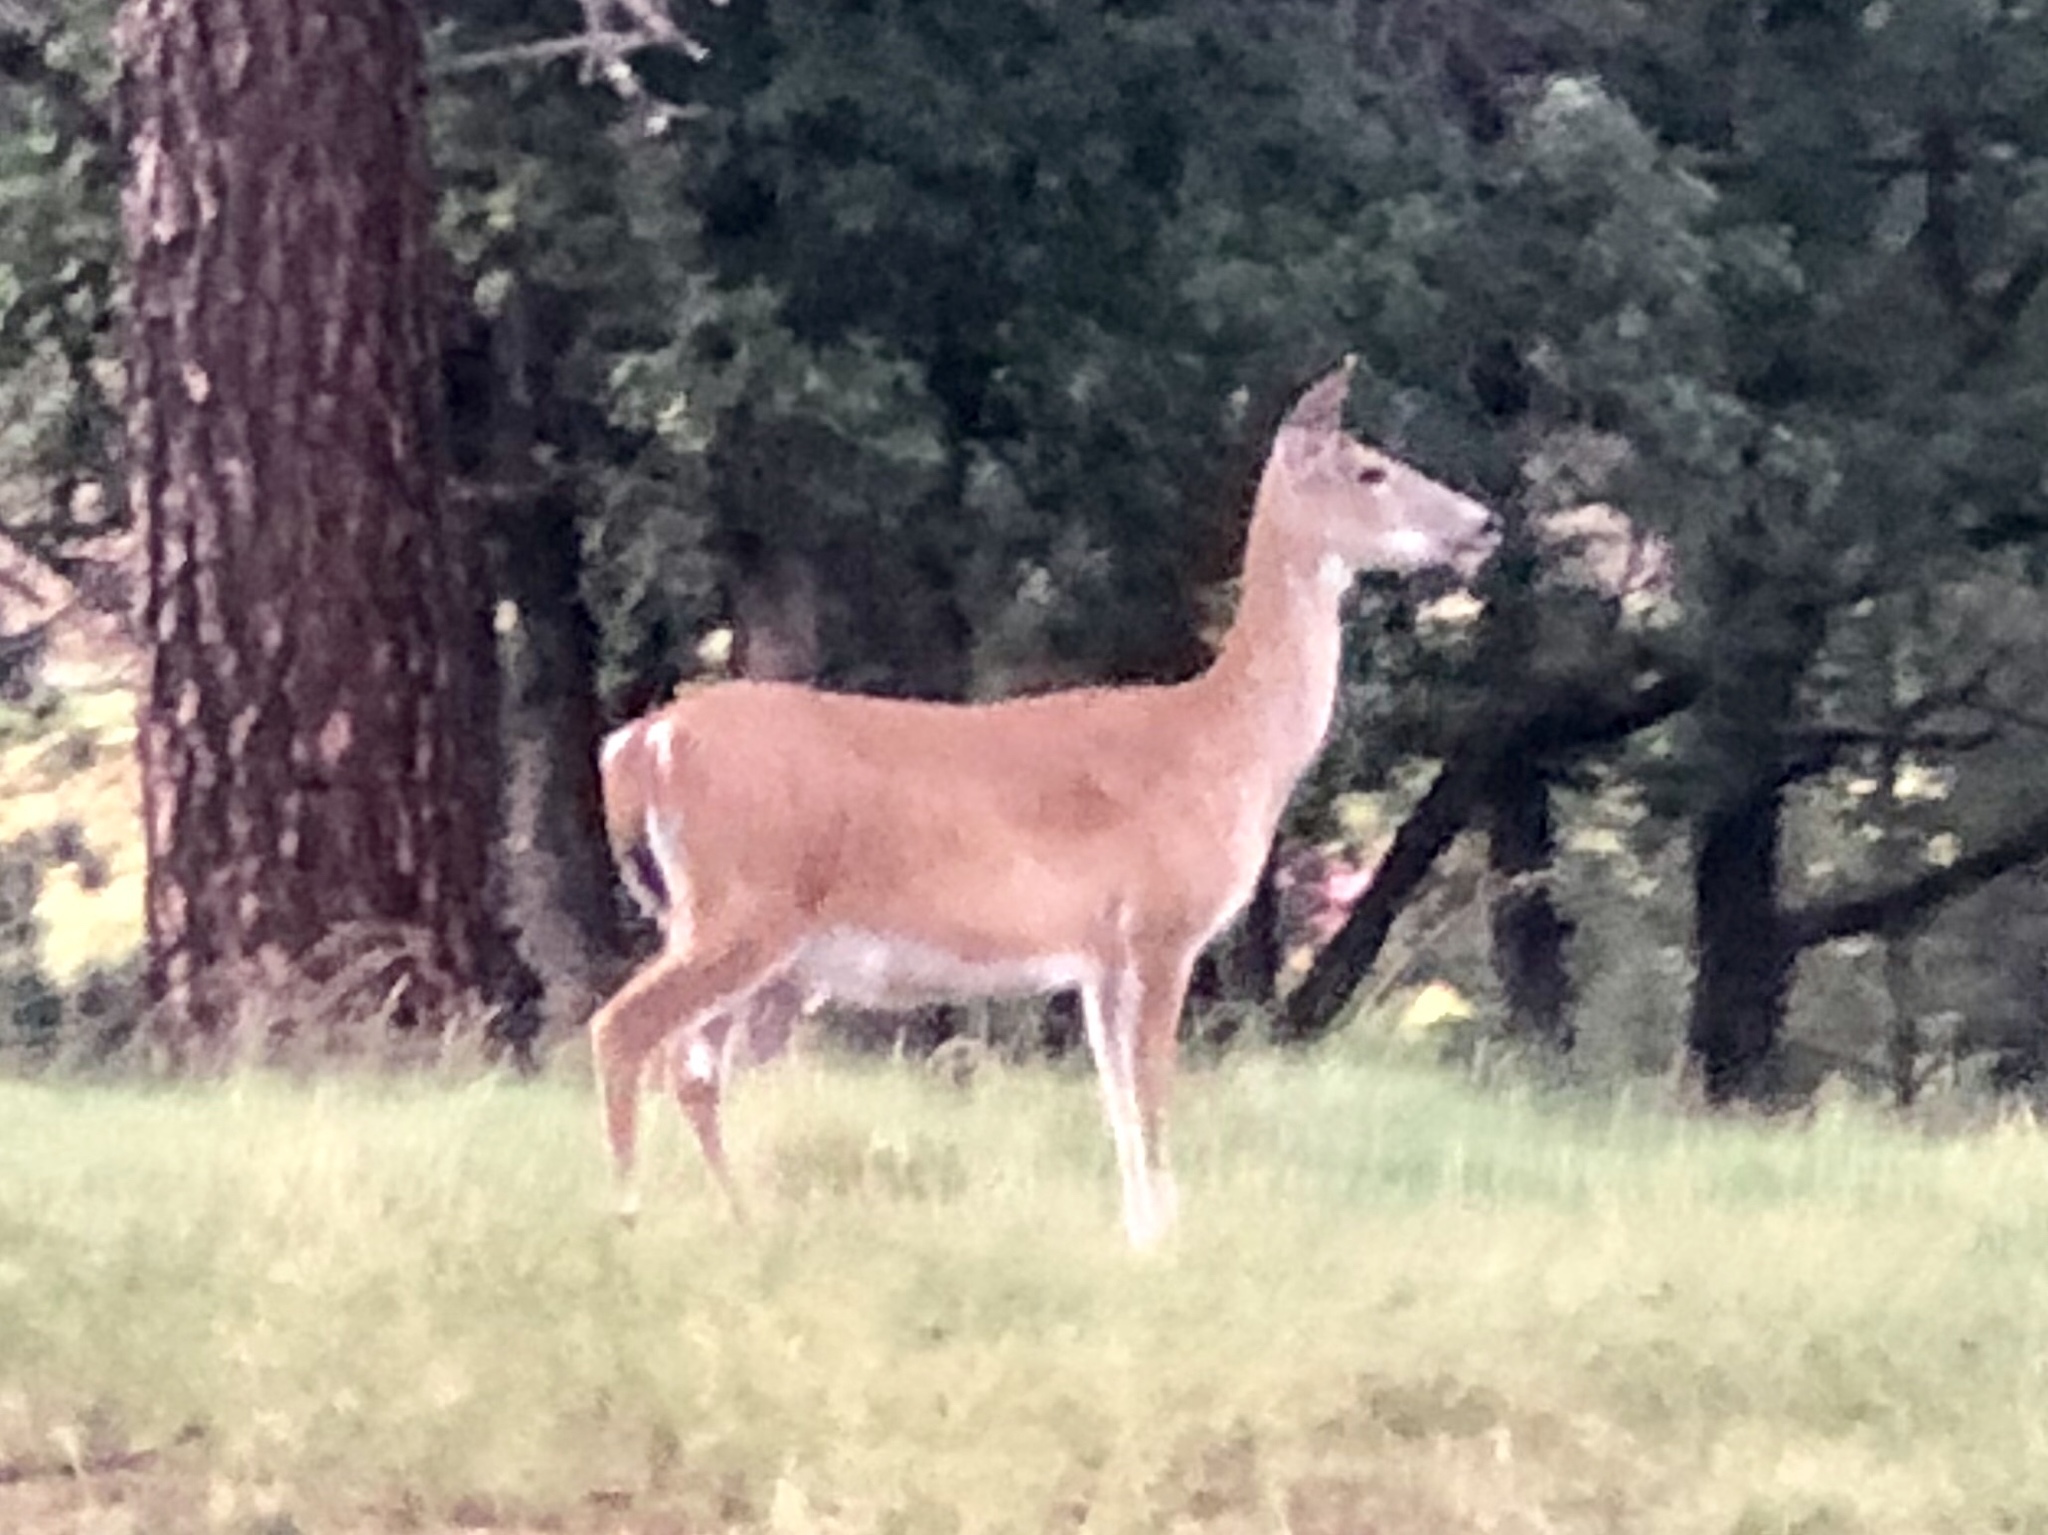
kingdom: Animalia
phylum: Chordata
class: Mammalia
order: Artiodactyla
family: Cervidae
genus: Odocoileus
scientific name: Odocoileus virginianus
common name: White-tailed deer
